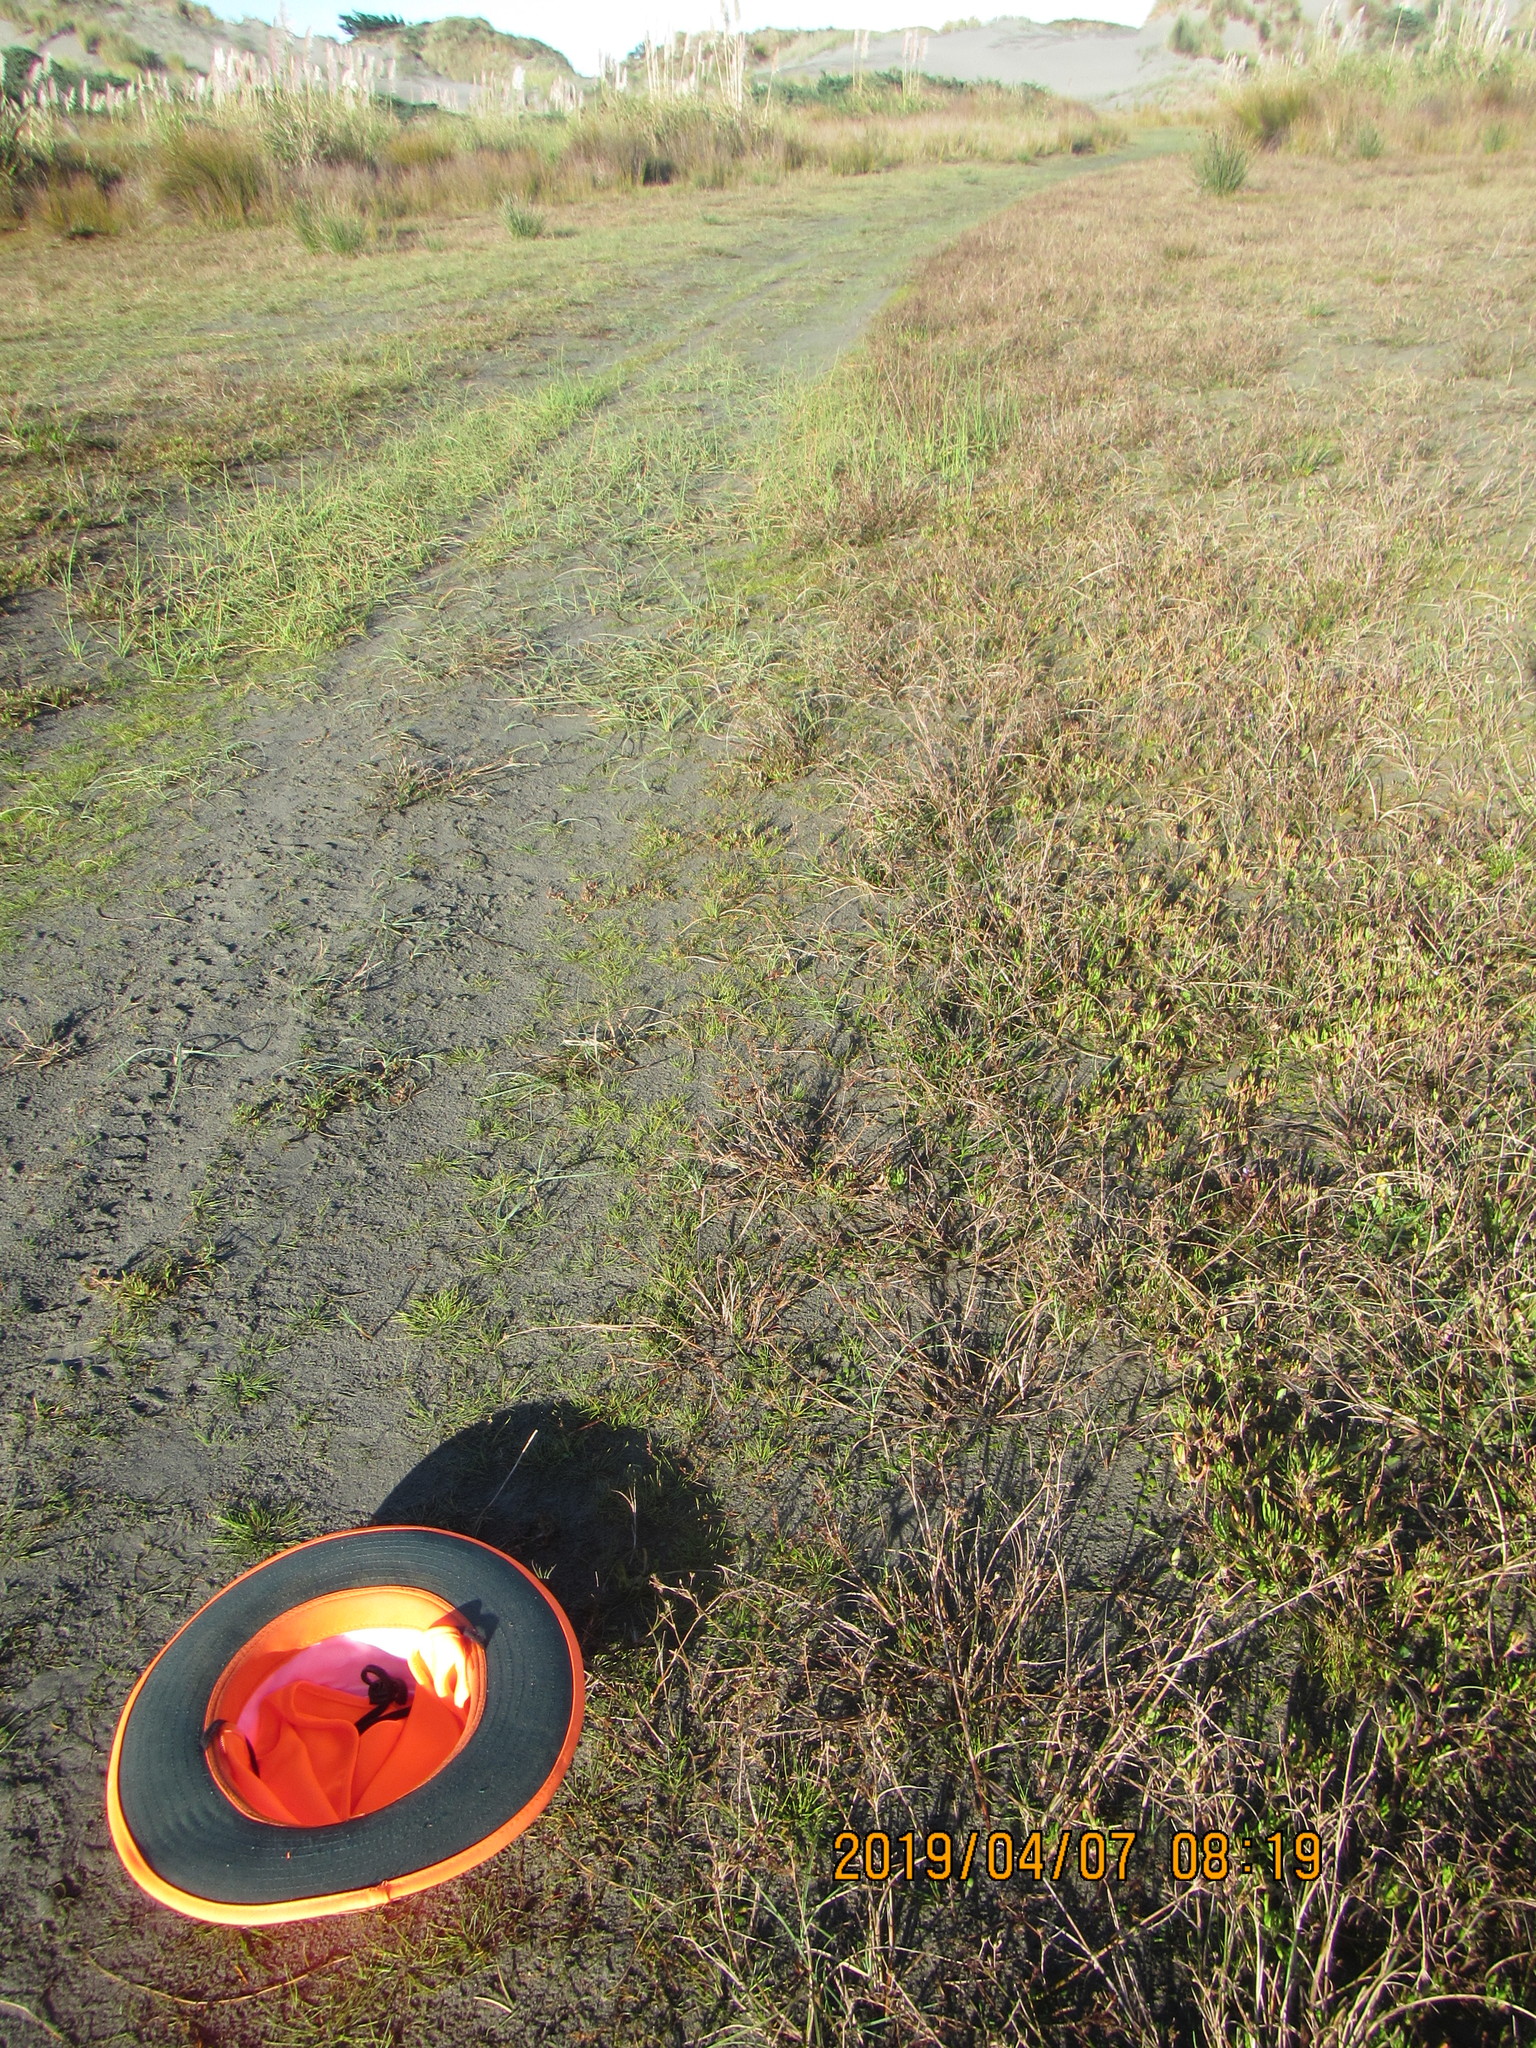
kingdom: Plantae
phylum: Tracheophyta
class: Liliopsida
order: Alismatales
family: Juncaginaceae
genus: Triglochin
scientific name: Triglochin striata
